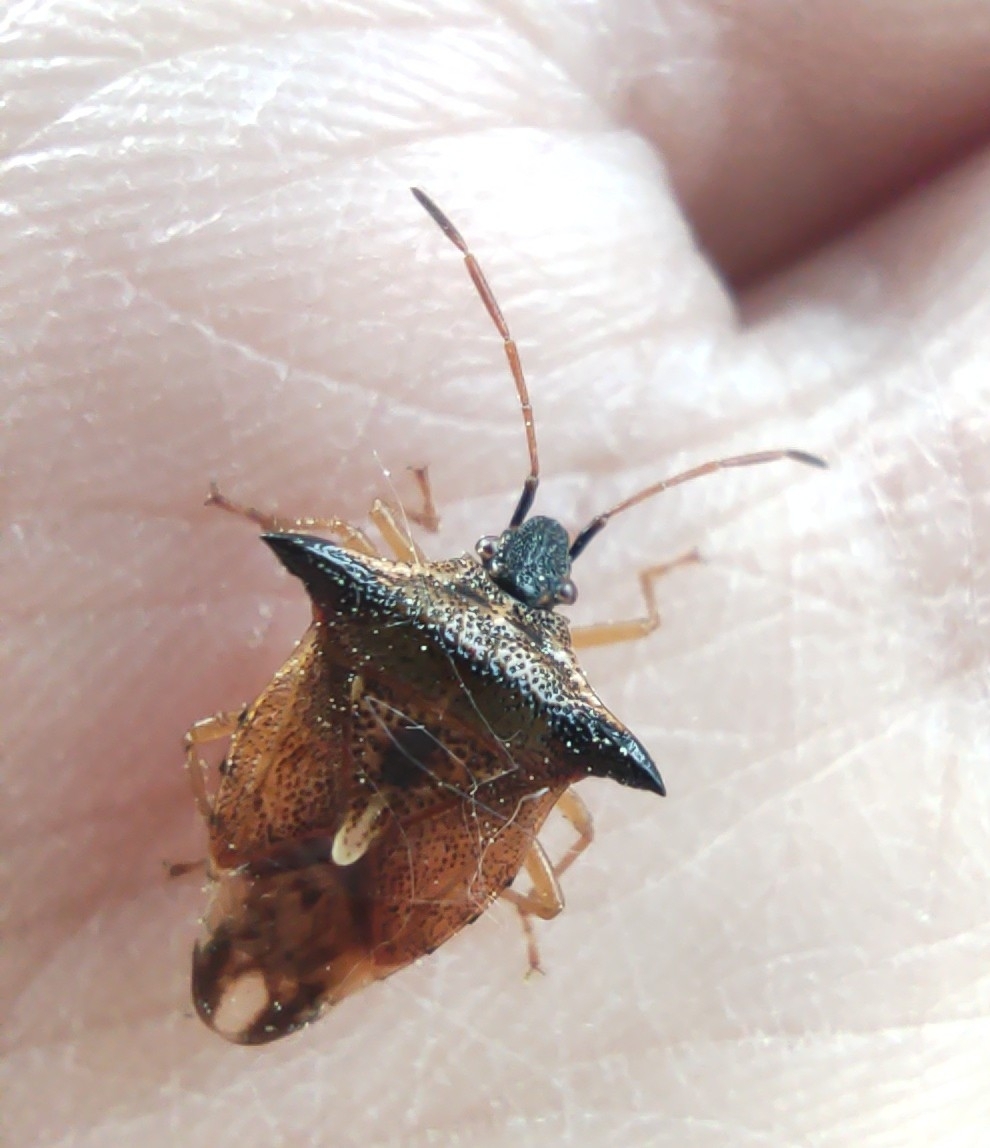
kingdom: Animalia
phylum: Arthropoda
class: Insecta
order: Hemiptera
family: Acanthosomatidae
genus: Elasmucha
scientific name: Elasmucha ferrugata
